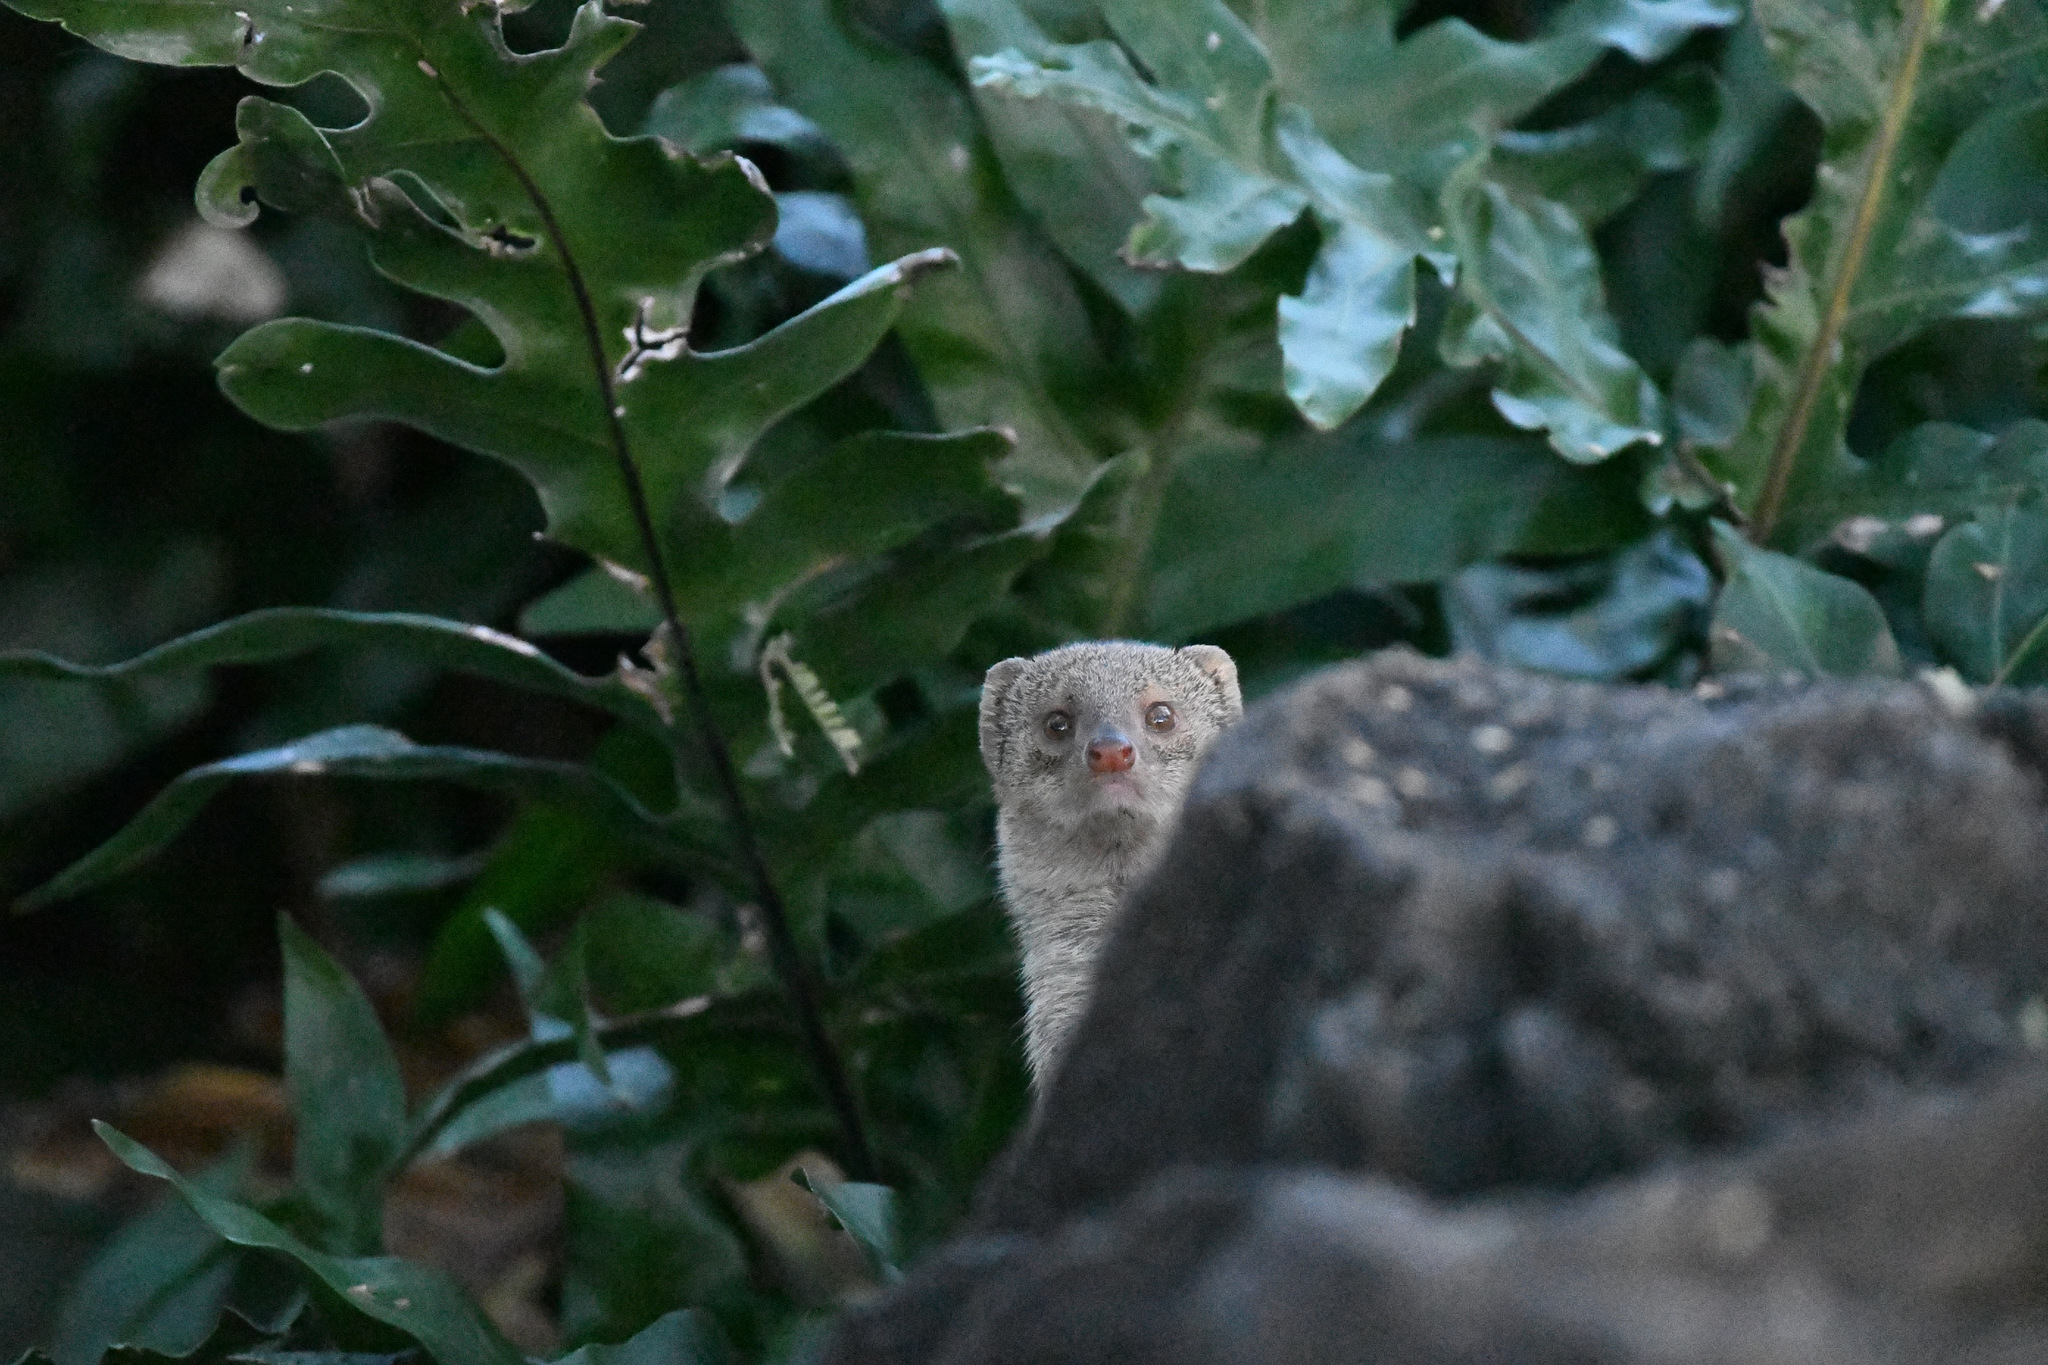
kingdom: Animalia
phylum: Chordata
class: Mammalia
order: Carnivora
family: Herpestidae
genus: Herpestes
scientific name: Herpestes javanicus
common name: Small asian mongoose
